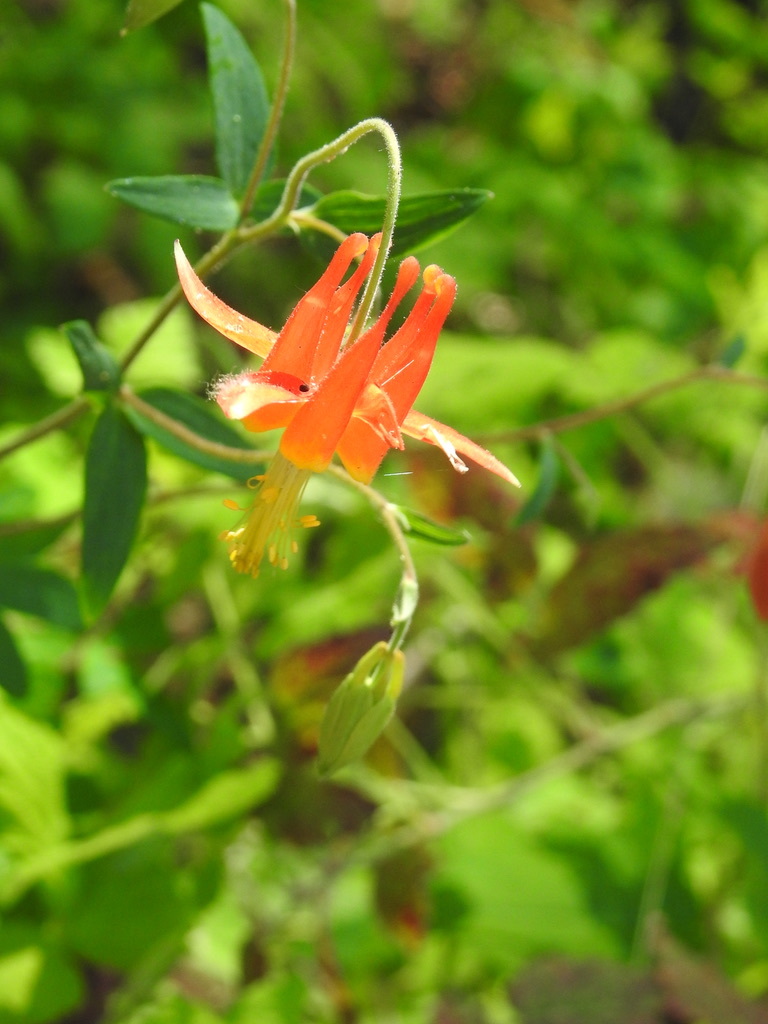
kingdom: Plantae
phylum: Tracheophyta
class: Magnoliopsida
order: Ranunculales
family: Ranunculaceae
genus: Aquilegia
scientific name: Aquilegia formosa
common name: Sitka columbine
